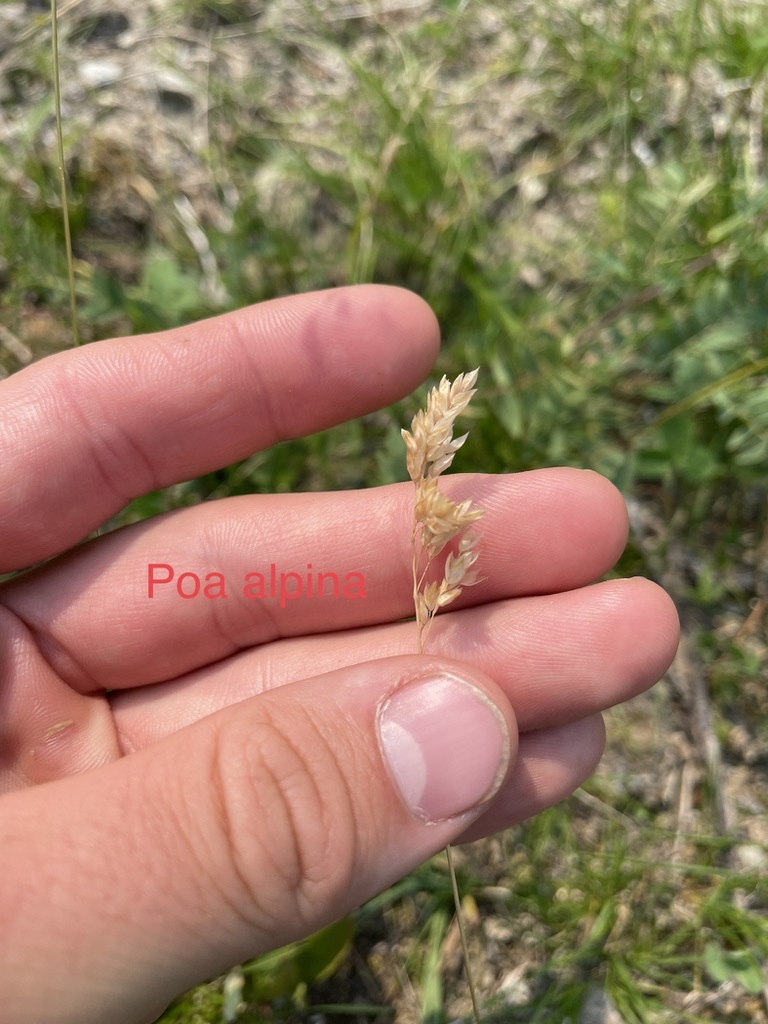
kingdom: Plantae
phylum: Tracheophyta
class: Liliopsida
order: Poales
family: Poaceae
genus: Poa
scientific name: Poa alpina
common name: Alpine bluegrass
